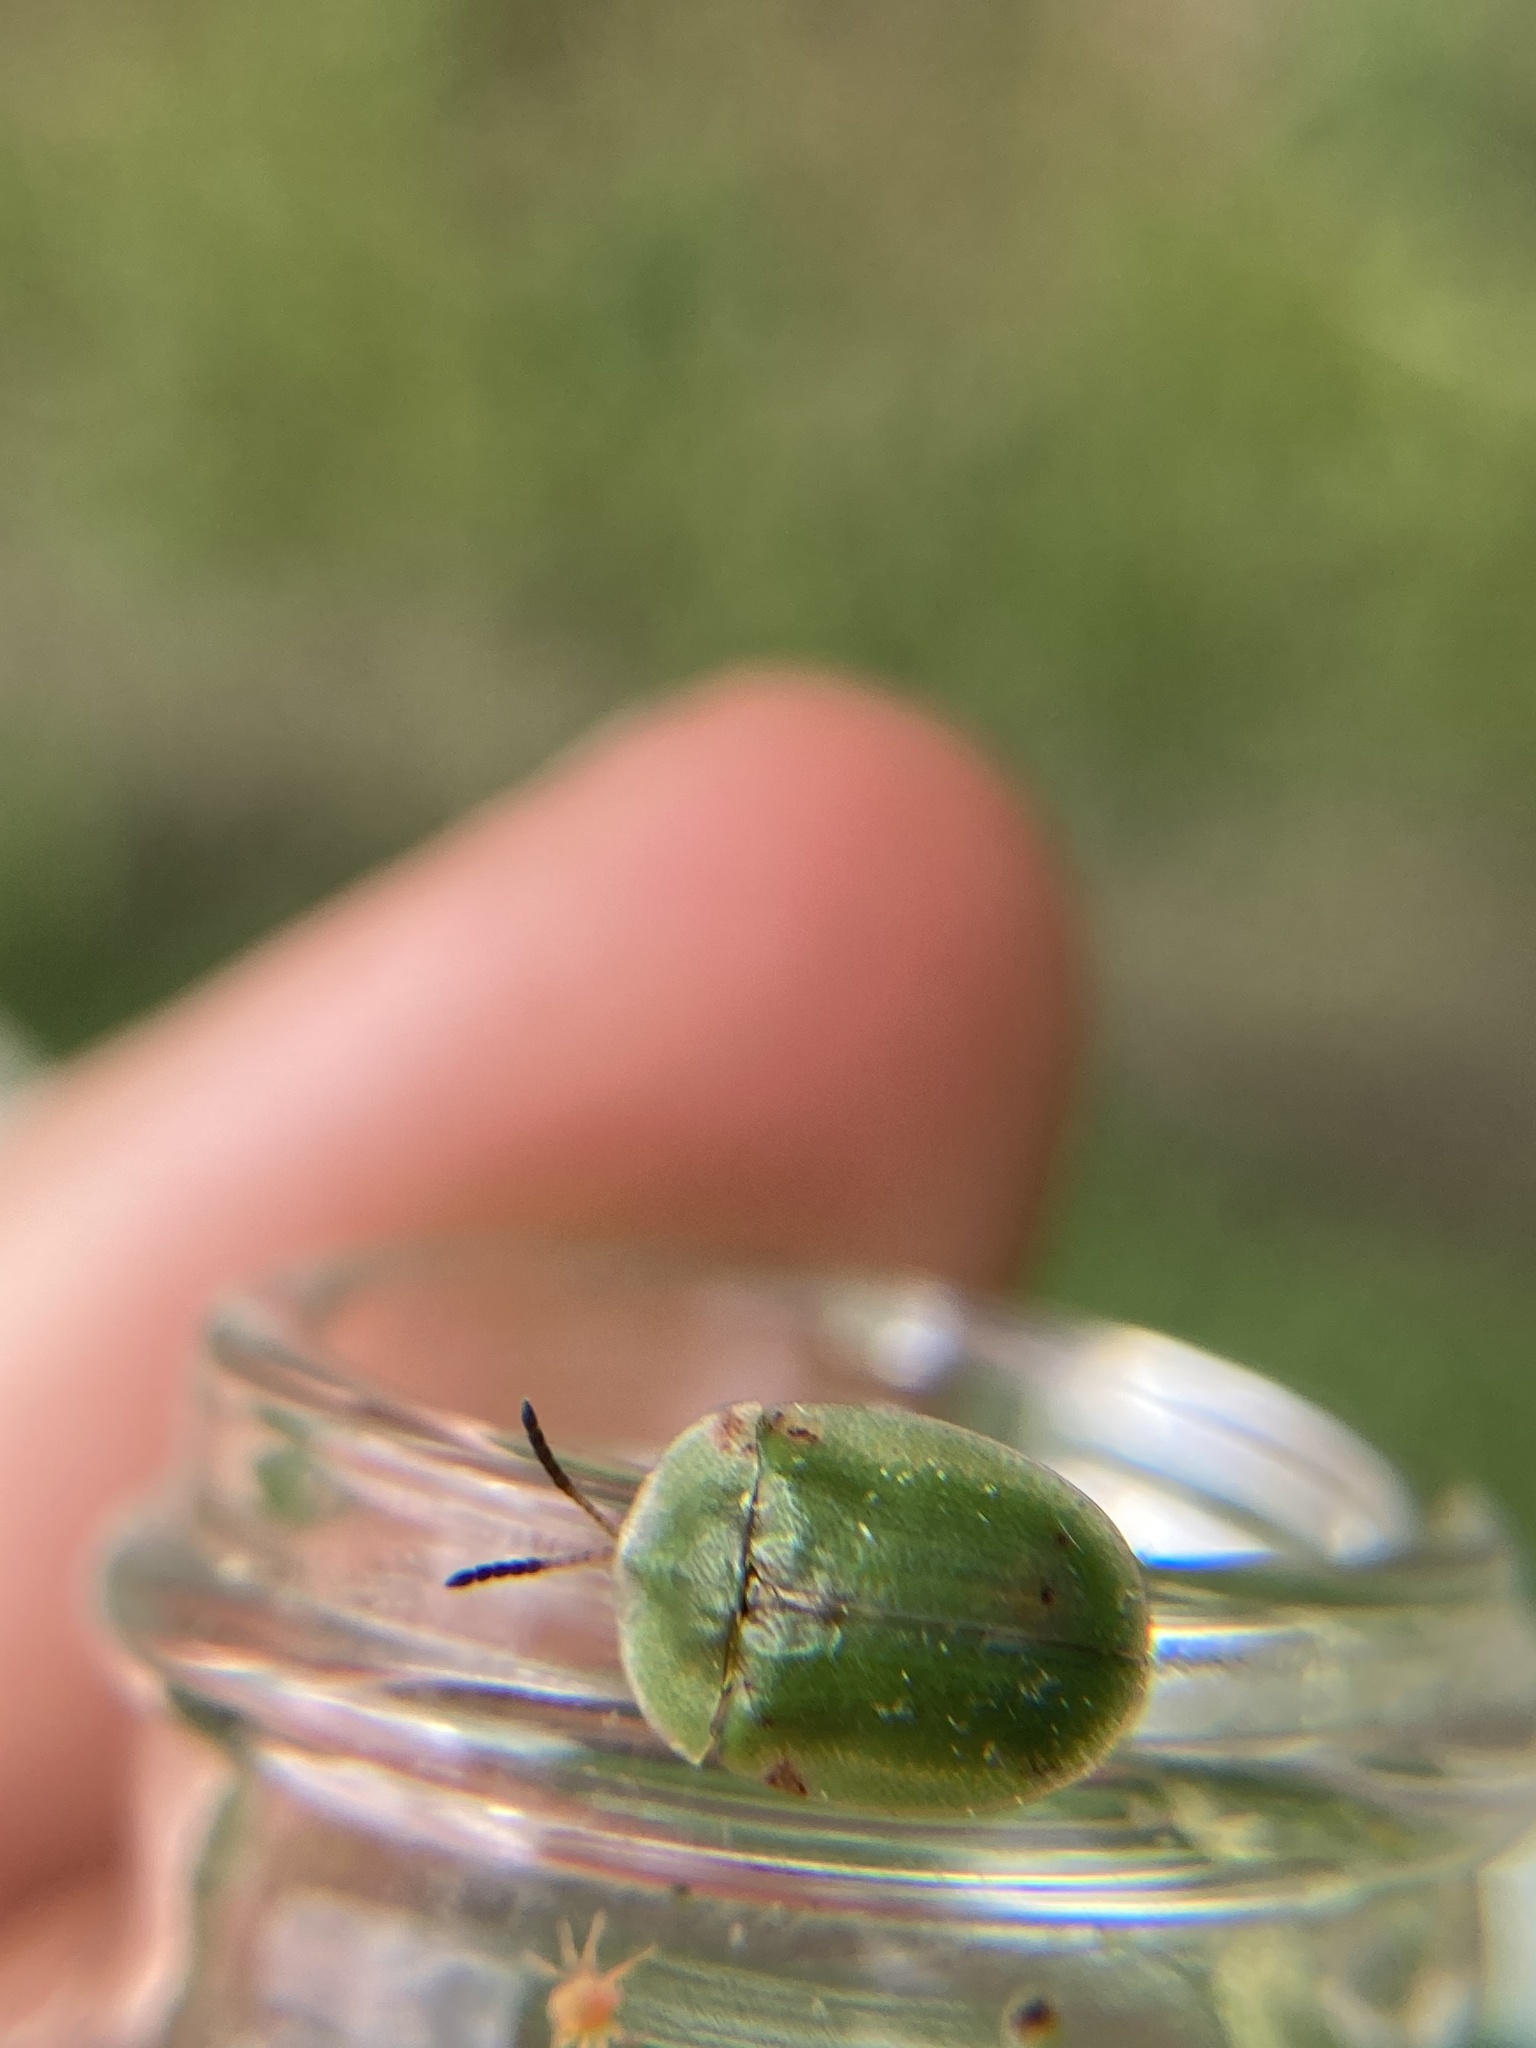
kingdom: Animalia
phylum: Arthropoda
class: Insecta
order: Coleoptera
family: Chrysomelidae
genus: Cassida
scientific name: Cassida rubiginosa
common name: Thistle tortoise beetle
